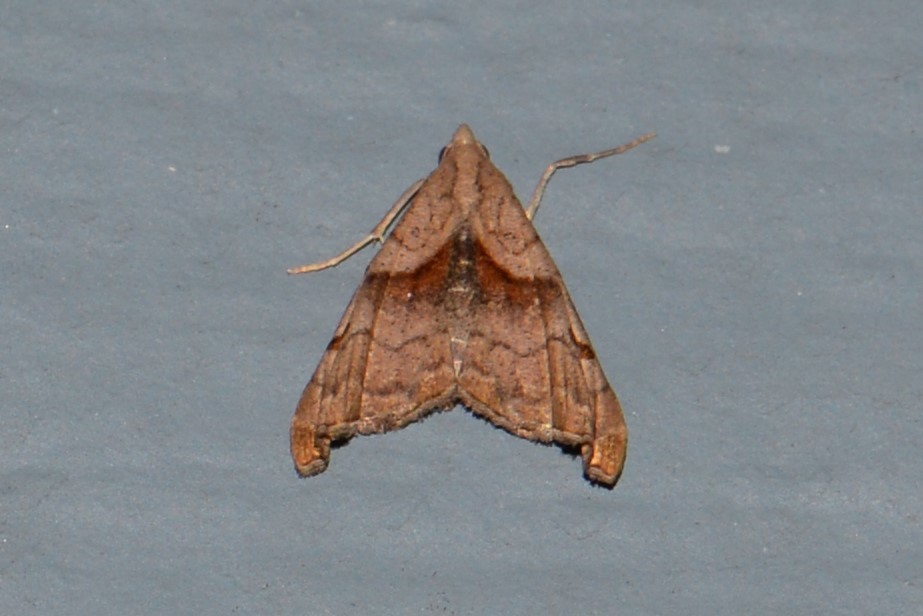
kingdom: Animalia
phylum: Arthropoda
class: Insecta
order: Lepidoptera
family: Erebidae
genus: Palthis
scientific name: Palthis angulalis
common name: Dark-spotted palthis moth
